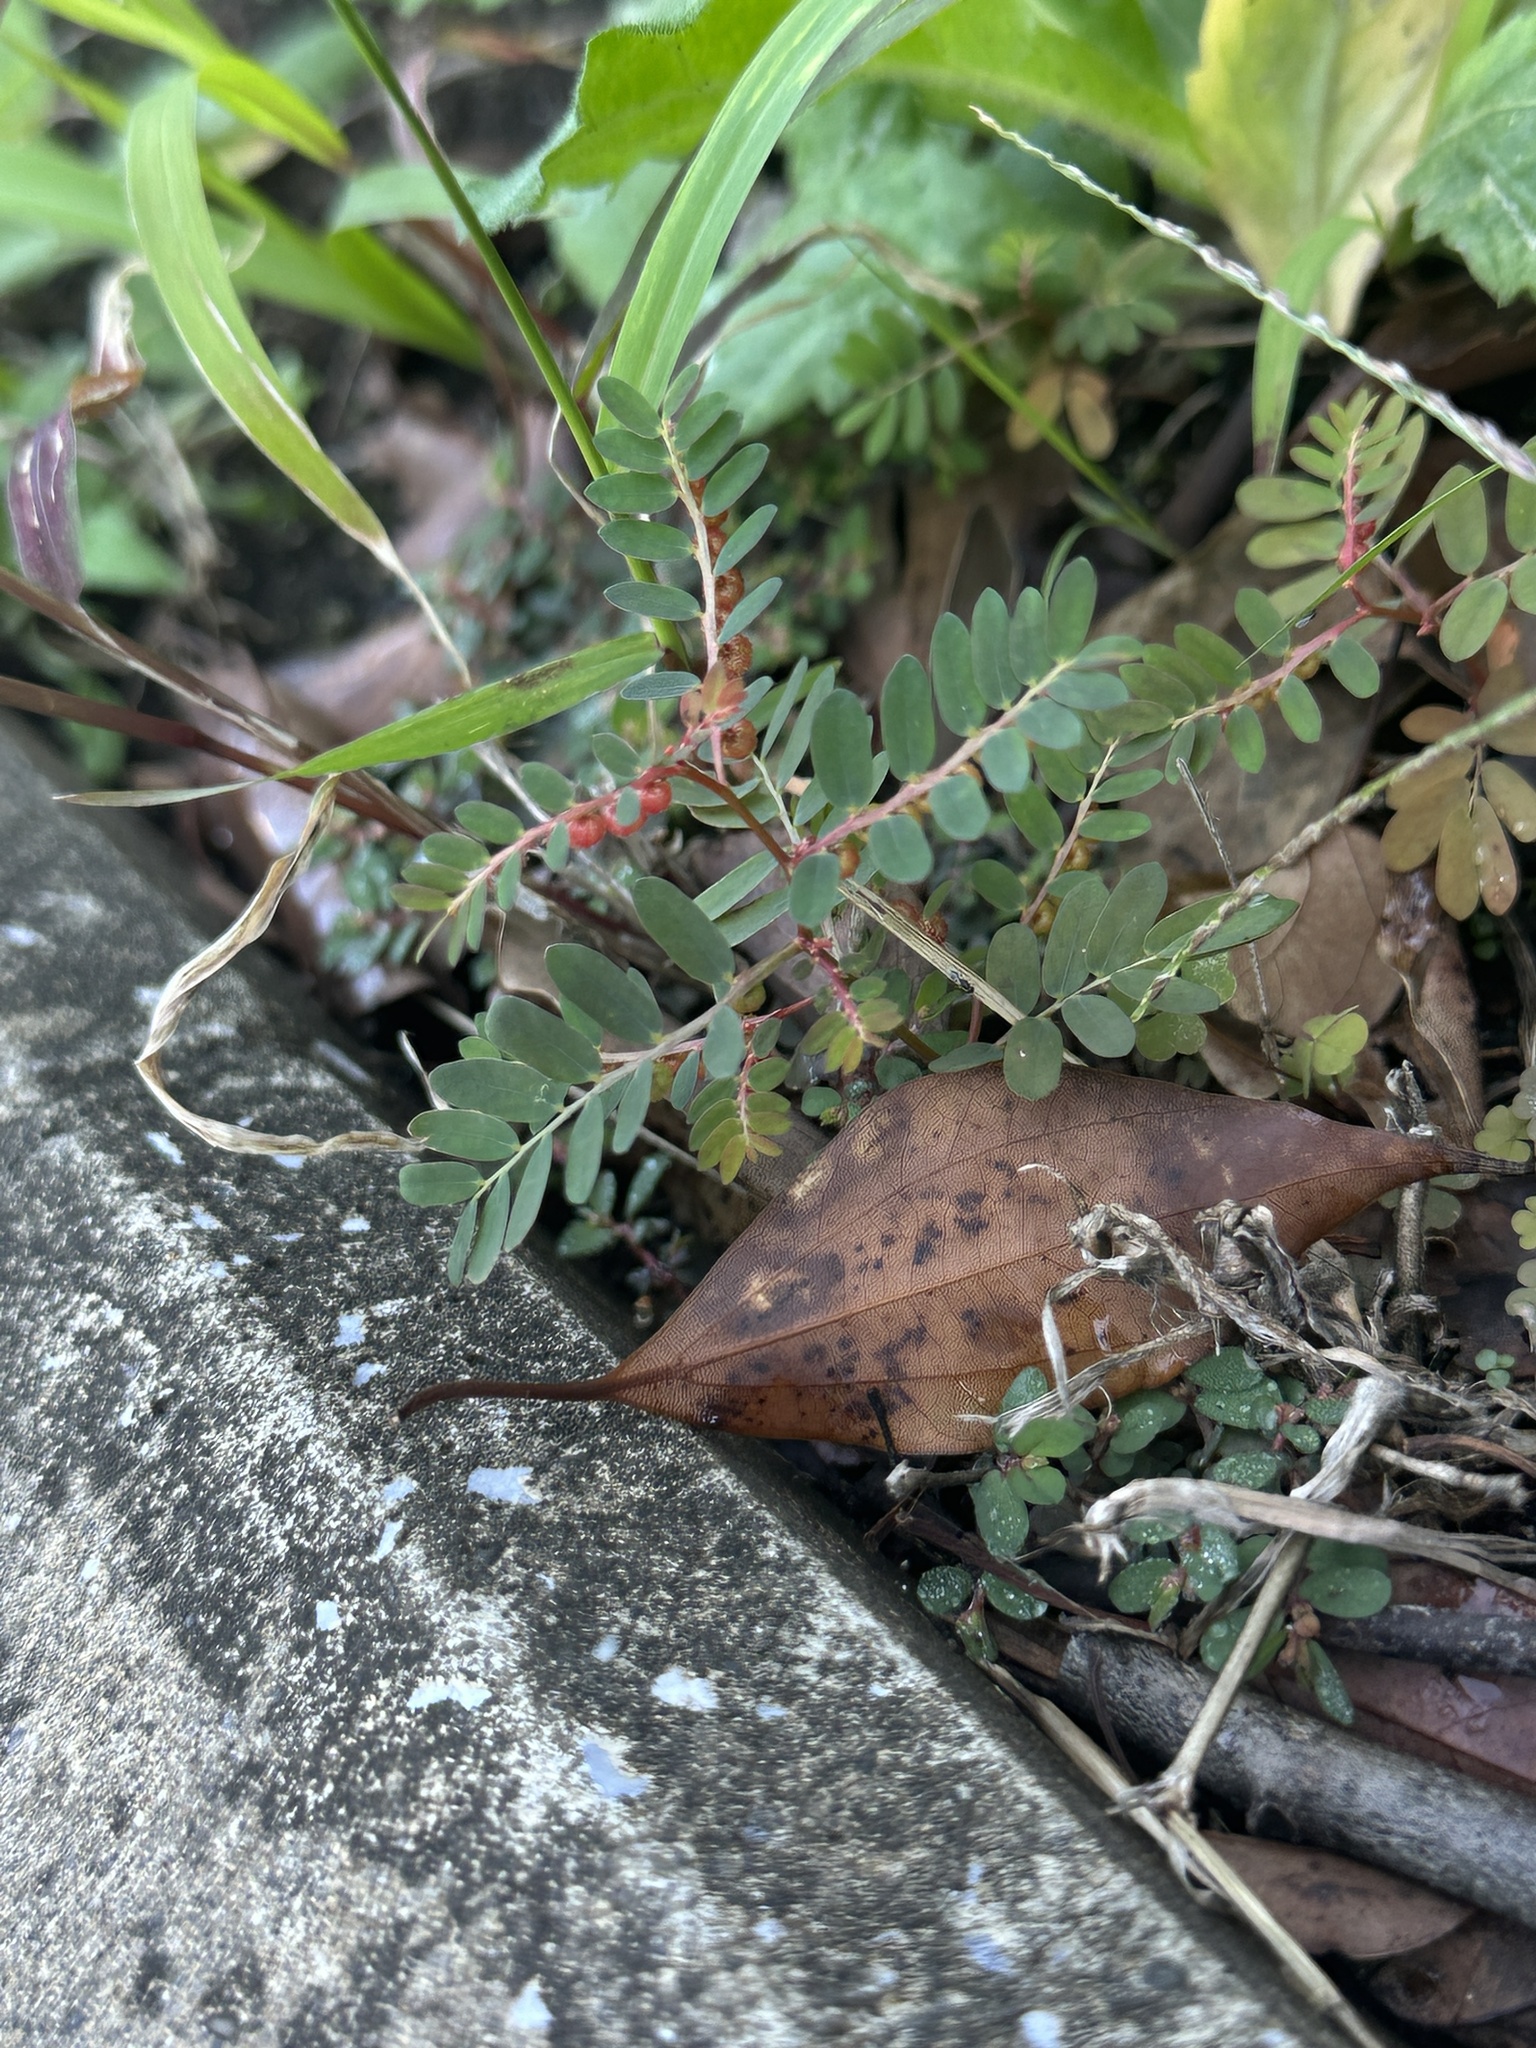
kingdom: Plantae
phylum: Tracheophyta
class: Magnoliopsida
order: Malpighiales
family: Phyllanthaceae
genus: Phyllanthus
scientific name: Phyllanthus urinaria
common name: Chamber bitter
